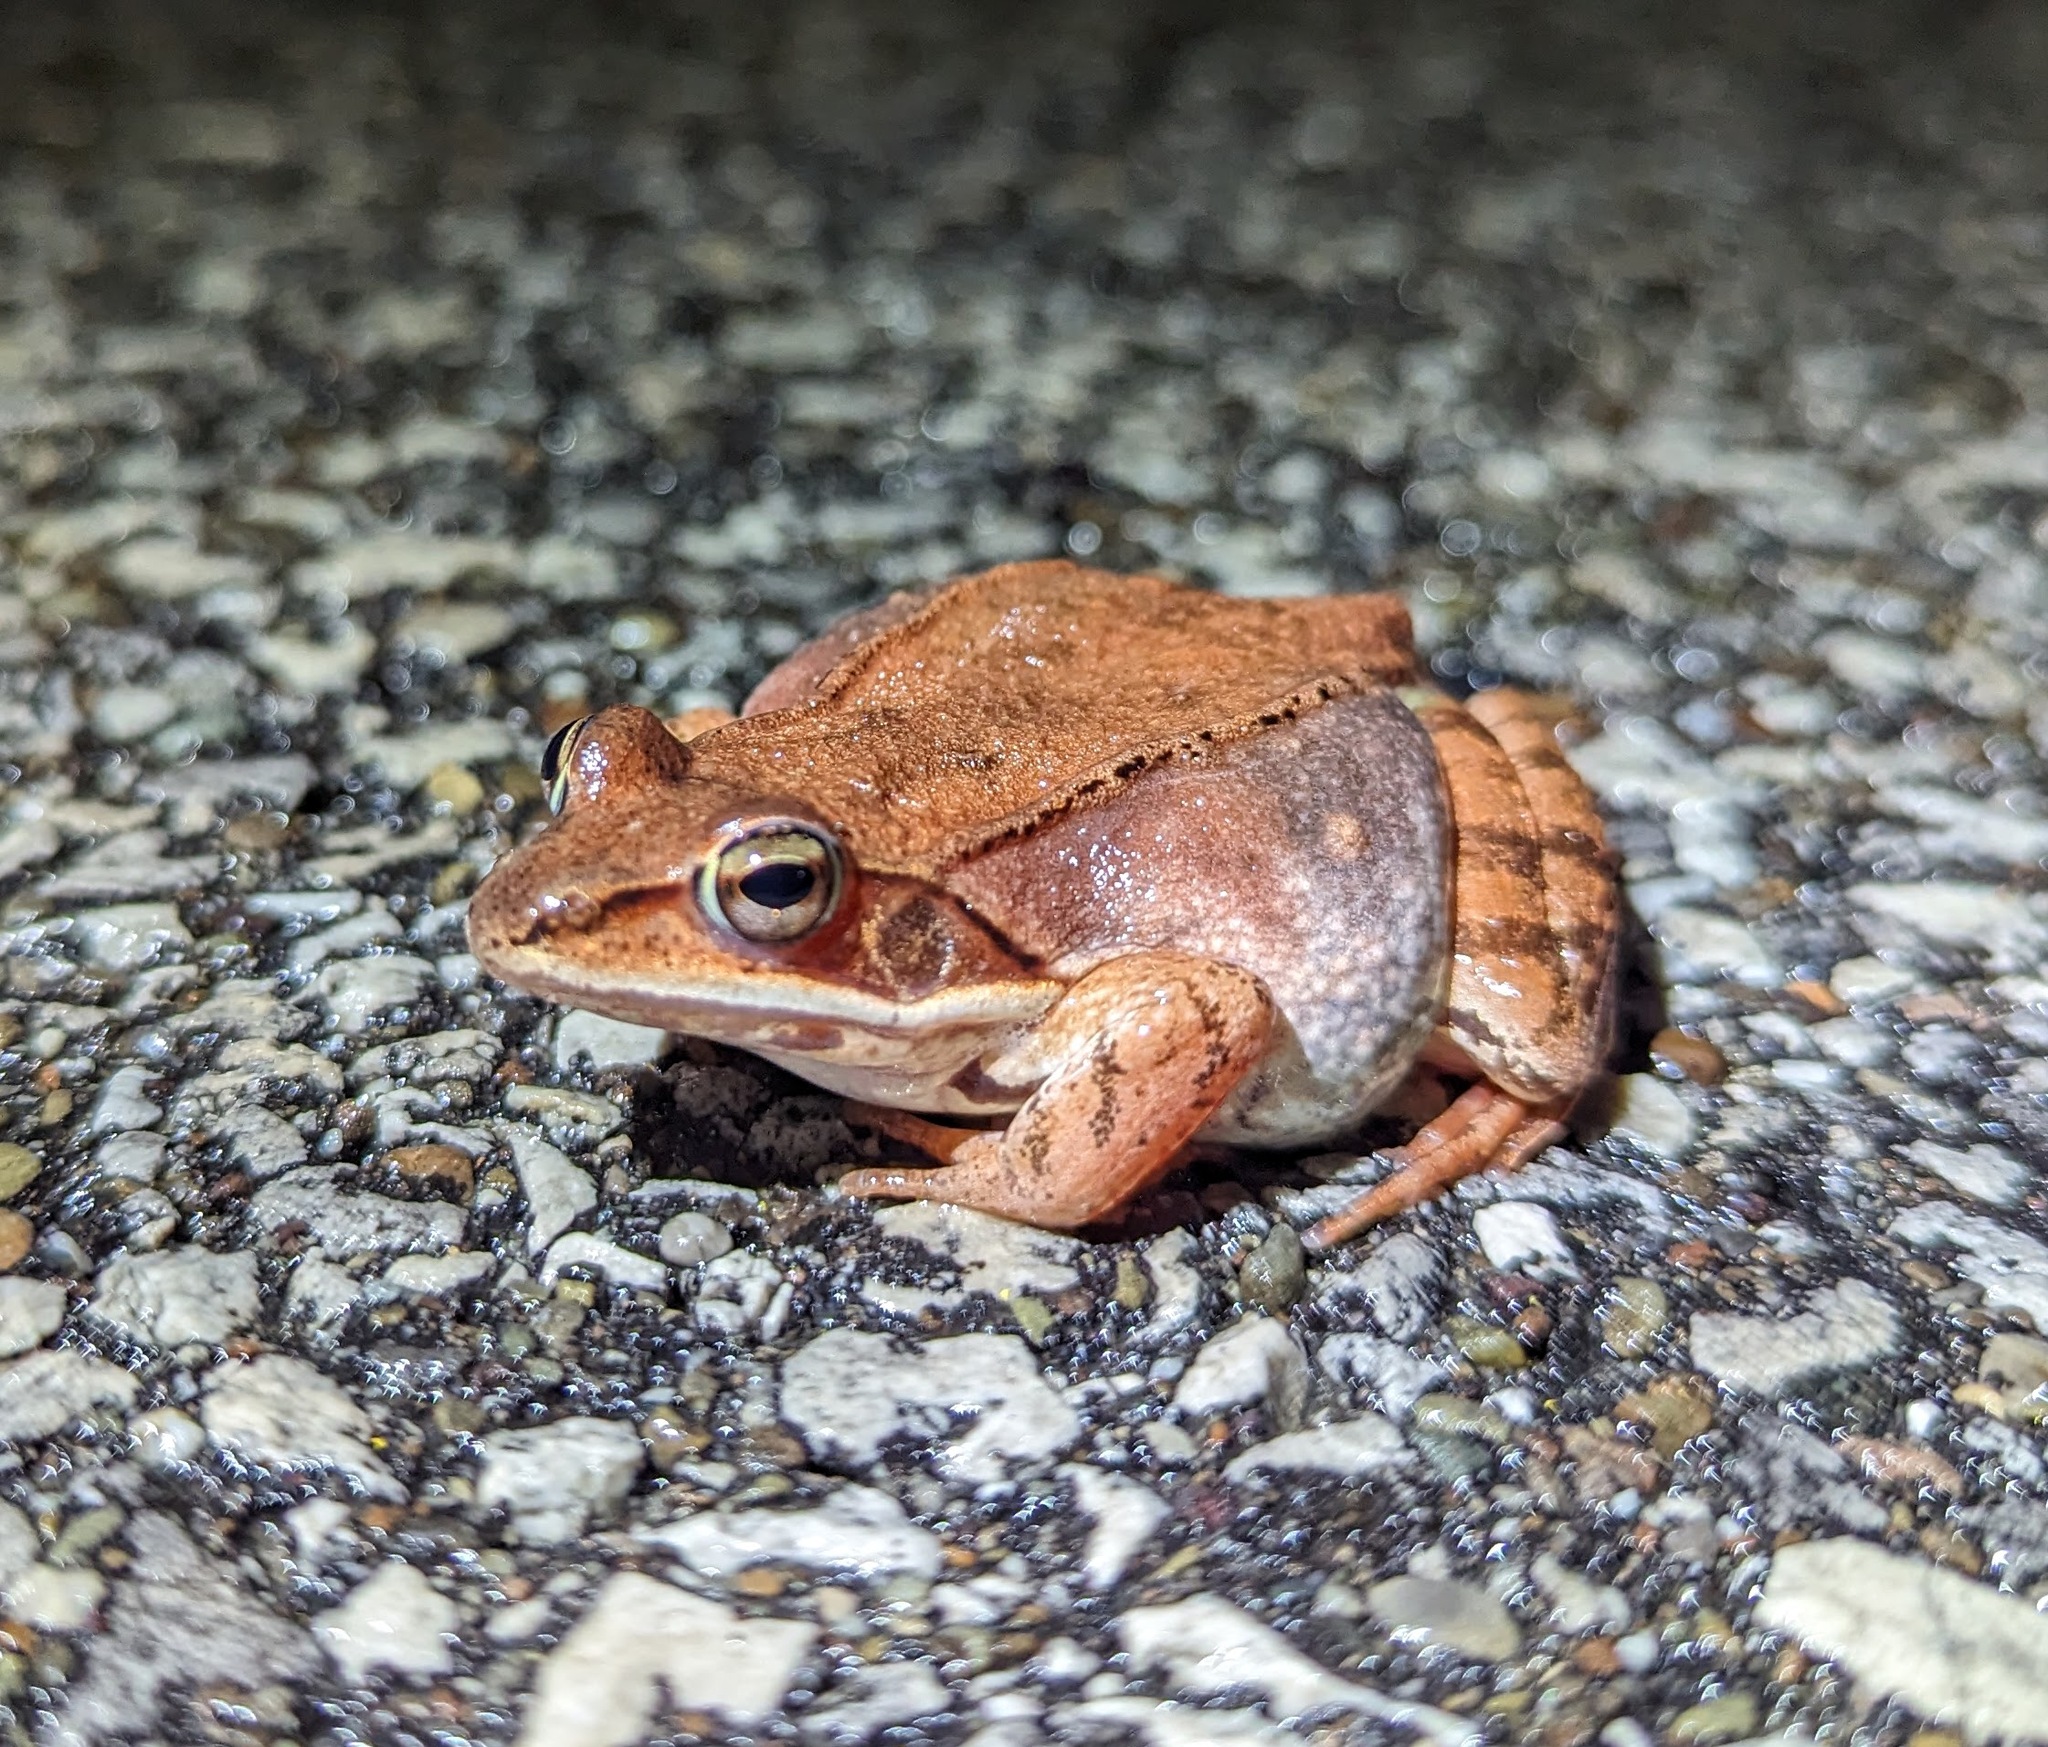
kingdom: Animalia
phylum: Chordata
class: Amphibia
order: Anura
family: Ranidae
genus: Lithobates
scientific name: Lithobates sylvaticus
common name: Wood frog
